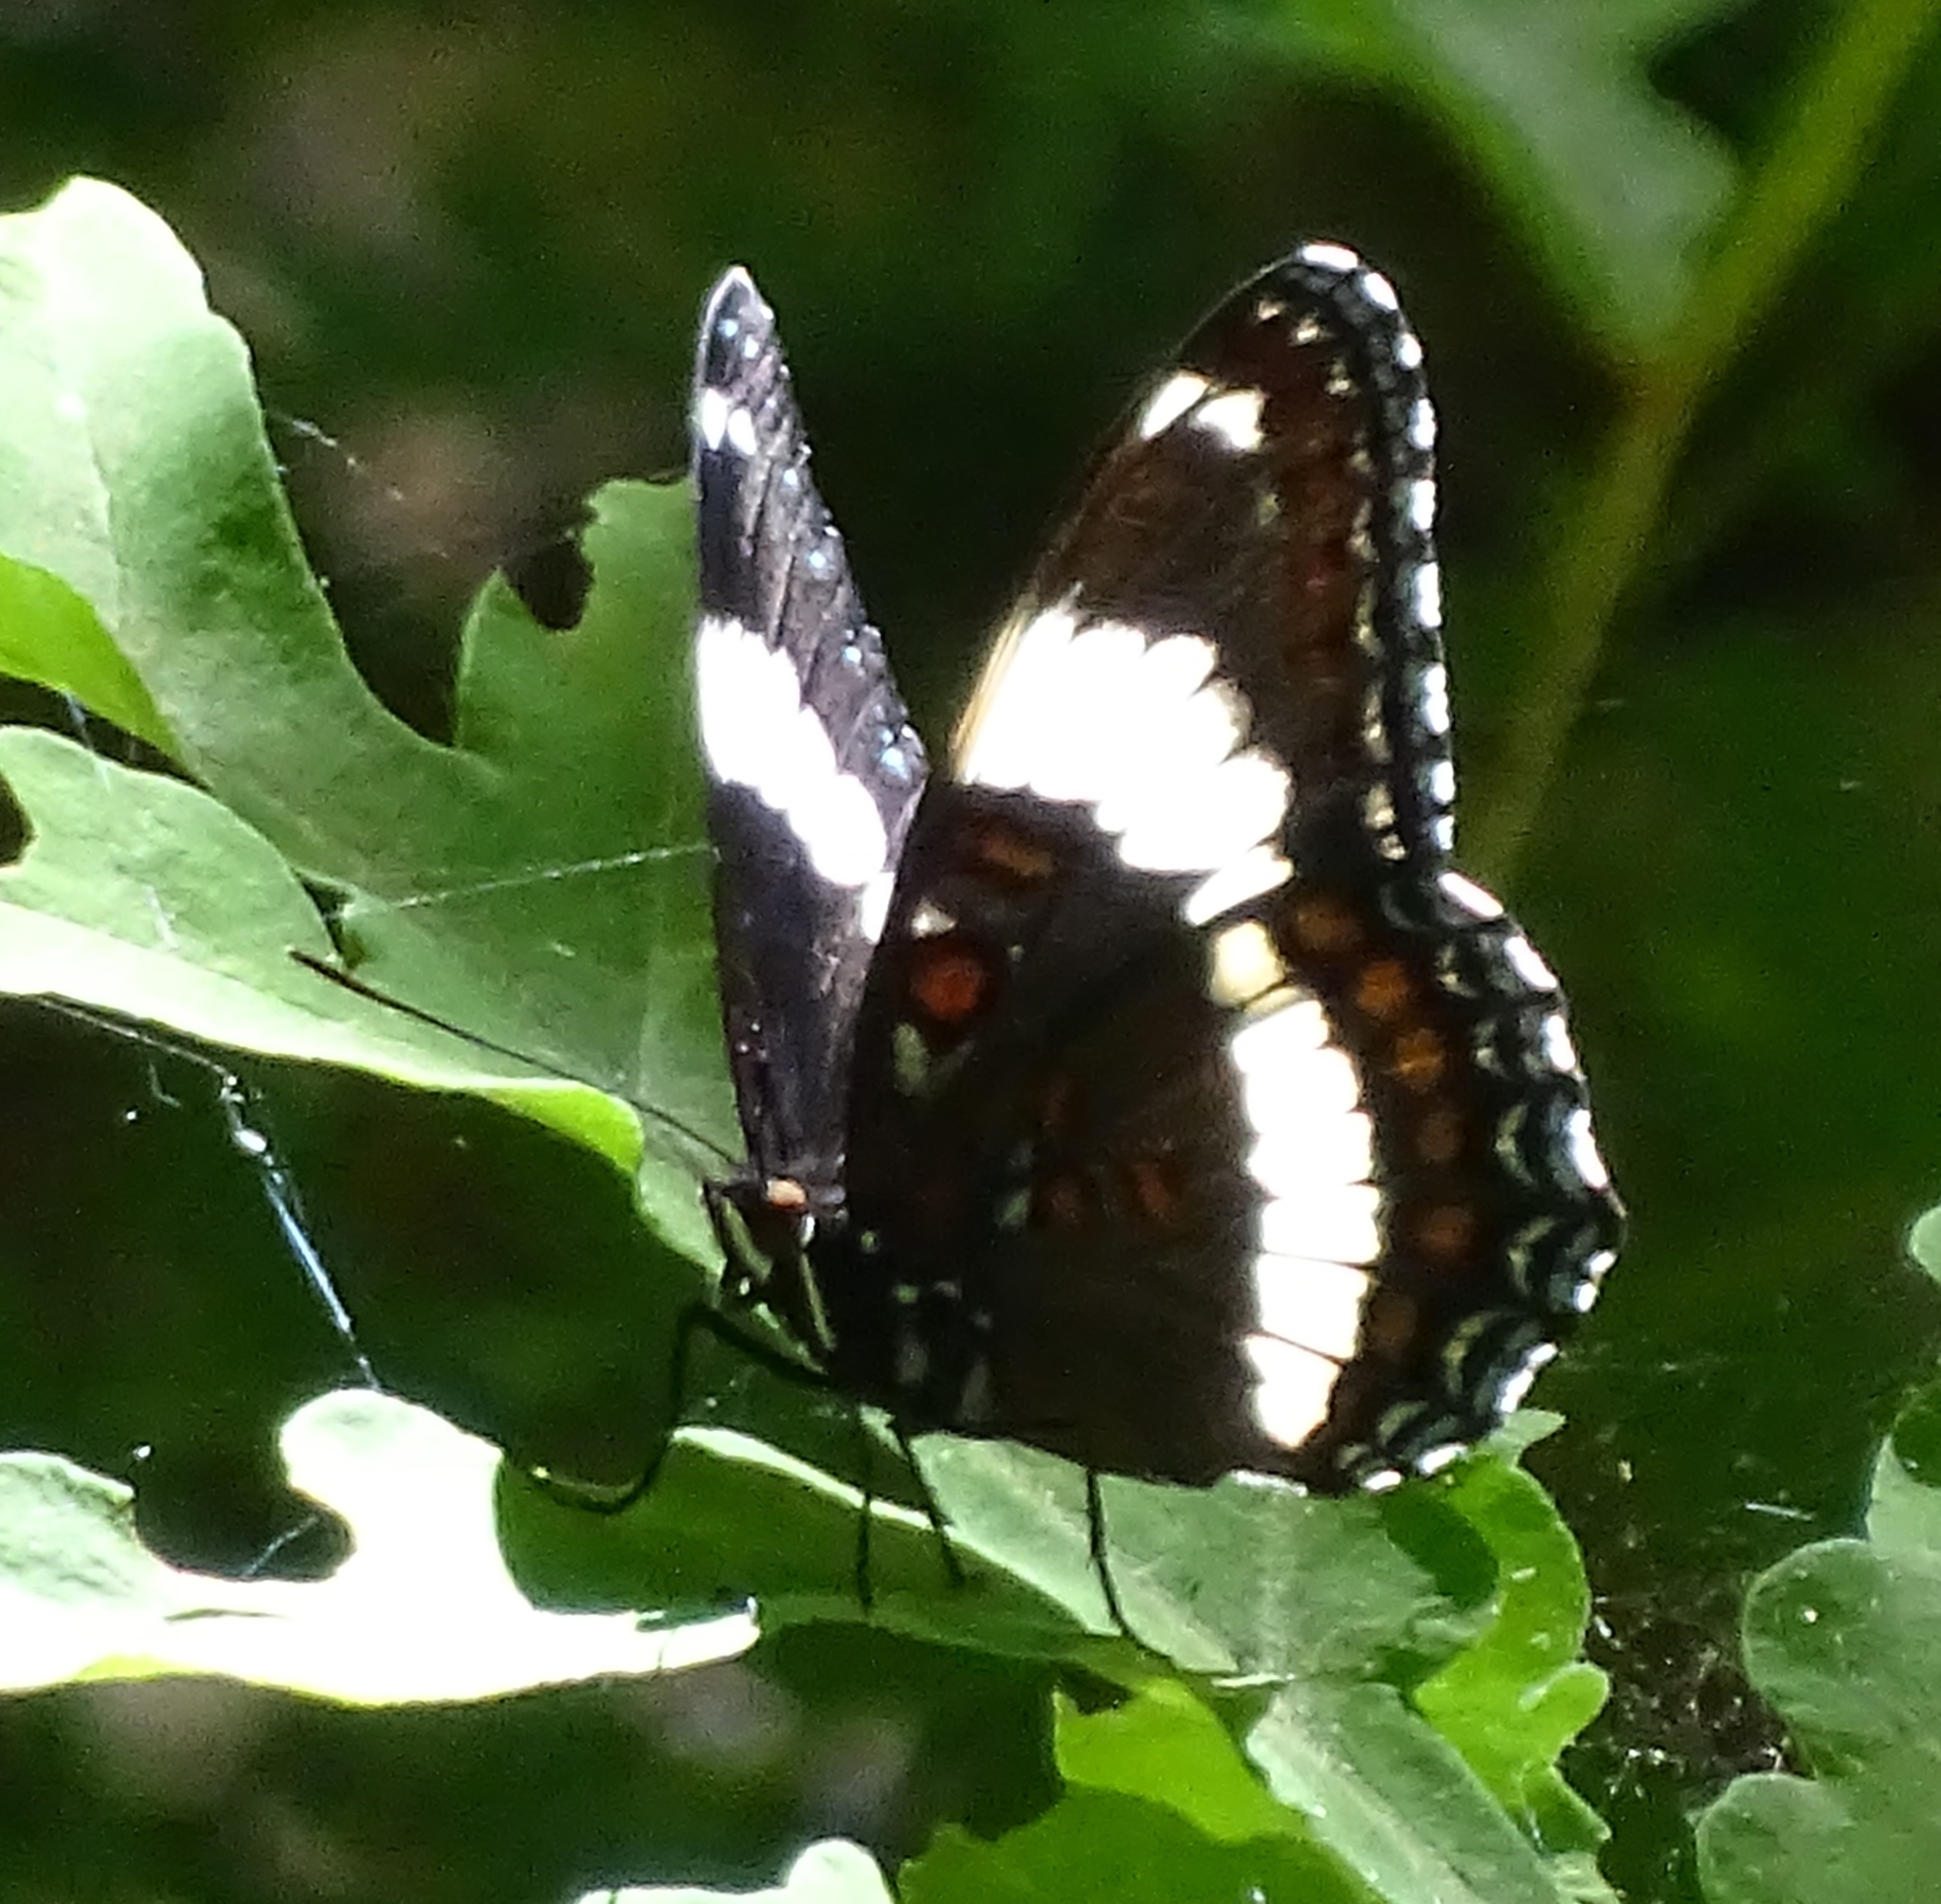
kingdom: Animalia
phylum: Arthropoda
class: Insecta
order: Lepidoptera
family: Nymphalidae
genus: Limenitis
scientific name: Limenitis arthemis
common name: Red-spotted admiral
